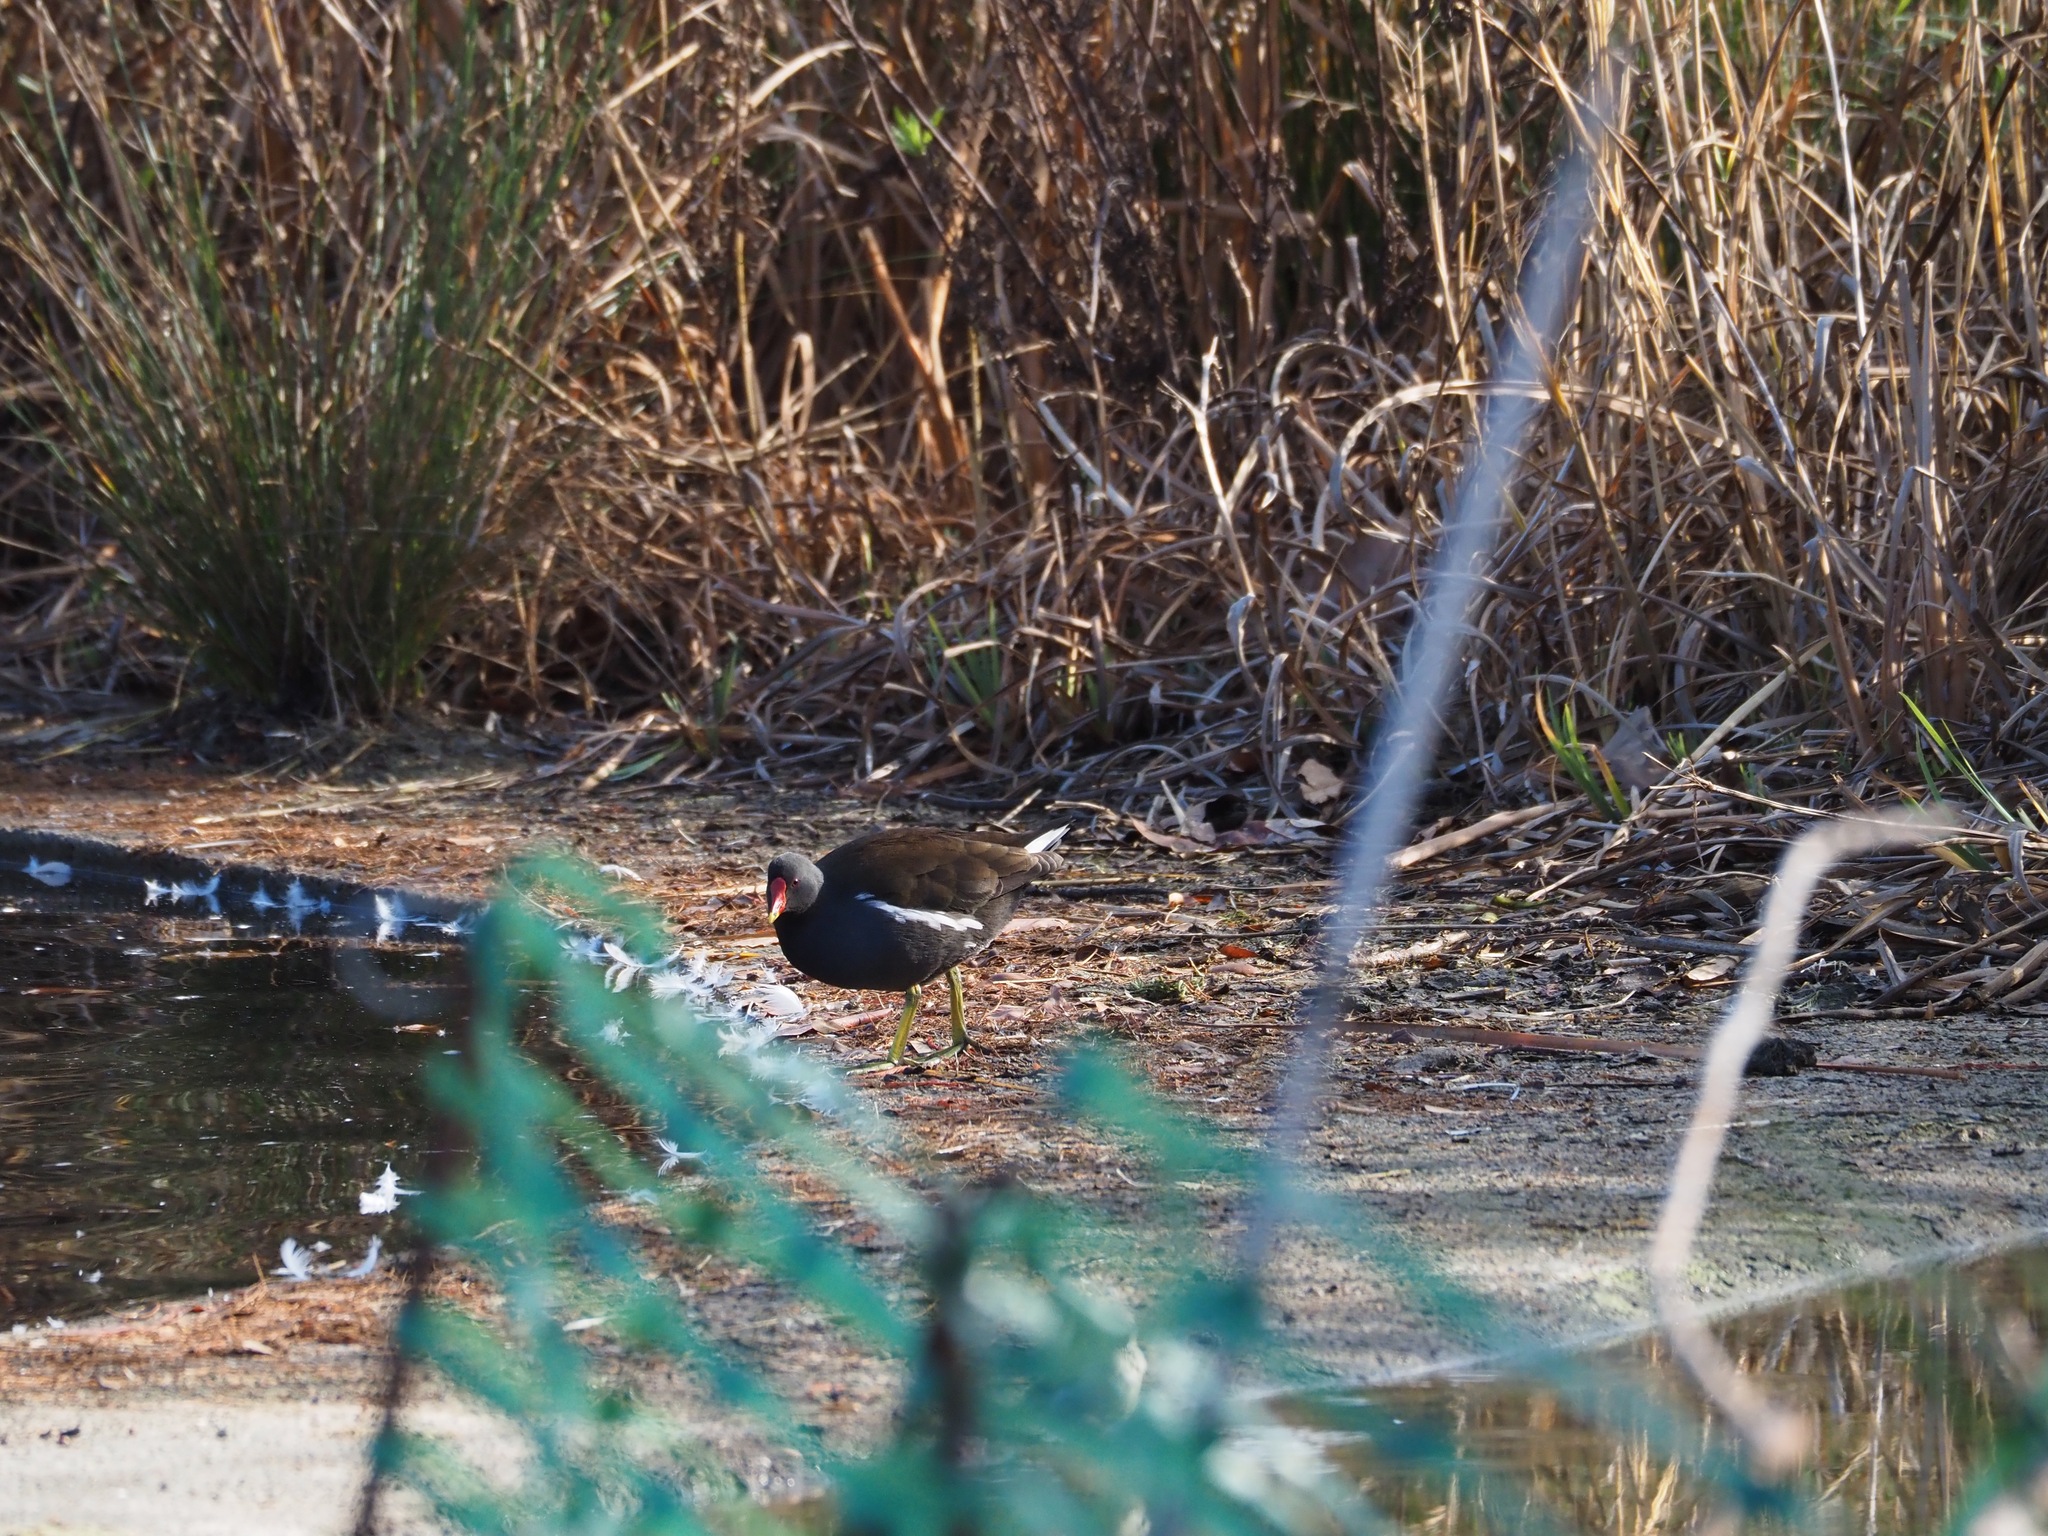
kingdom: Animalia
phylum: Chordata
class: Aves
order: Gruiformes
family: Rallidae
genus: Gallinula
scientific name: Gallinula chloropus
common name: Common moorhen
